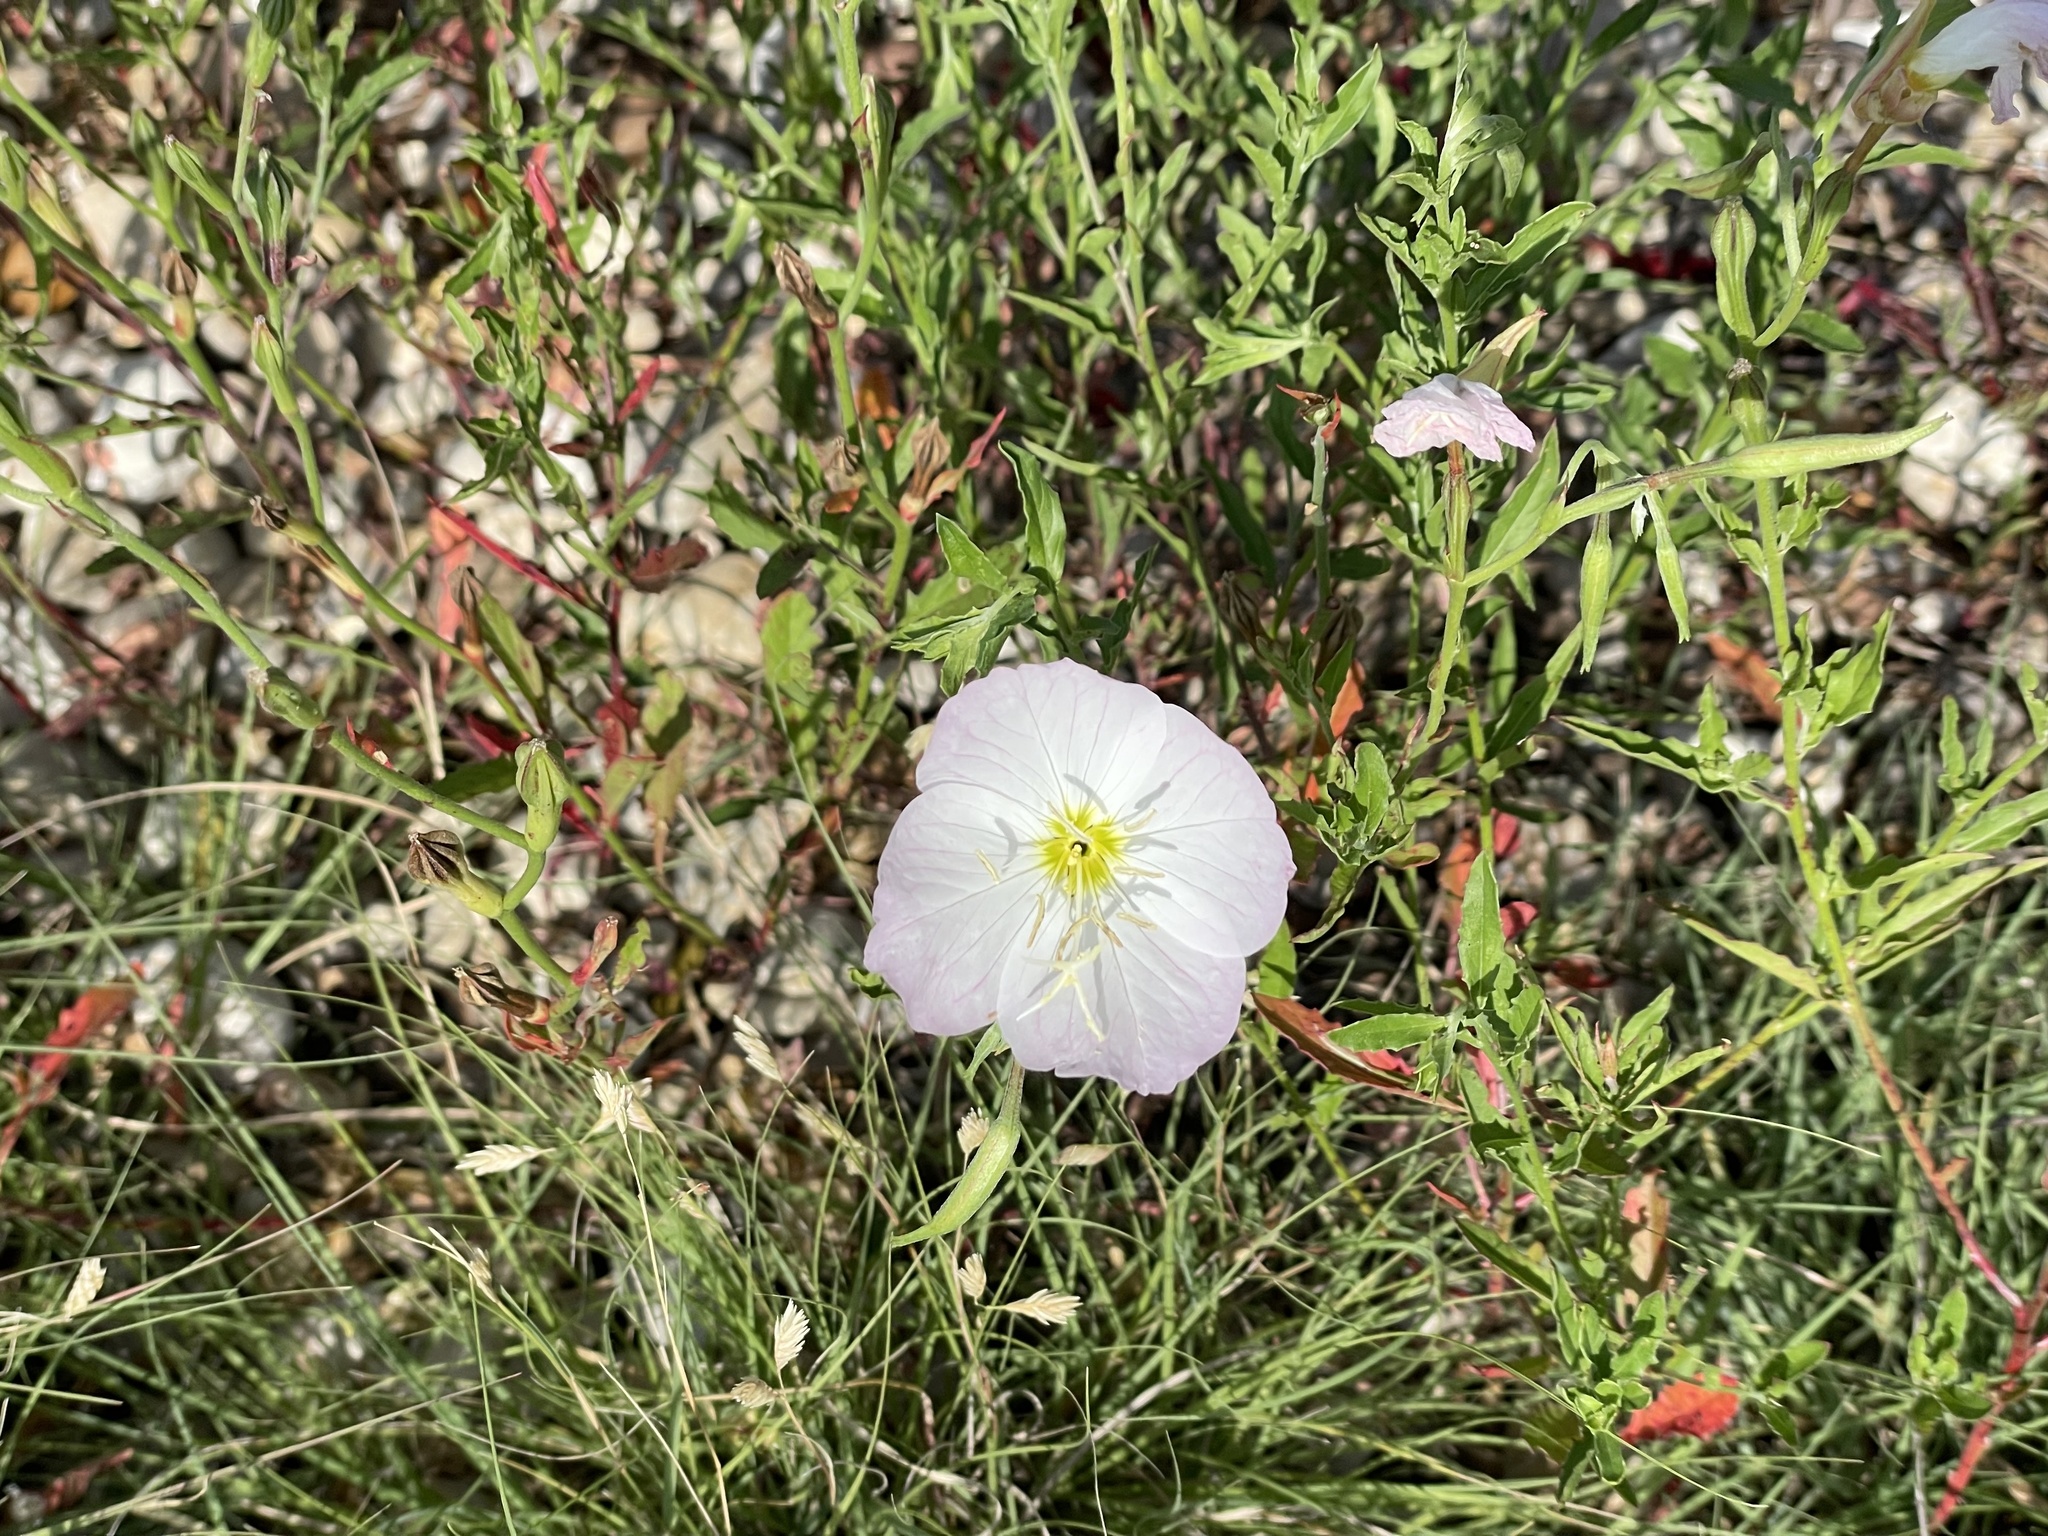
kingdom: Plantae
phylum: Tracheophyta
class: Magnoliopsida
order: Myrtales
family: Onagraceae
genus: Oenothera
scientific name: Oenothera speciosa
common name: White evening-primrose
